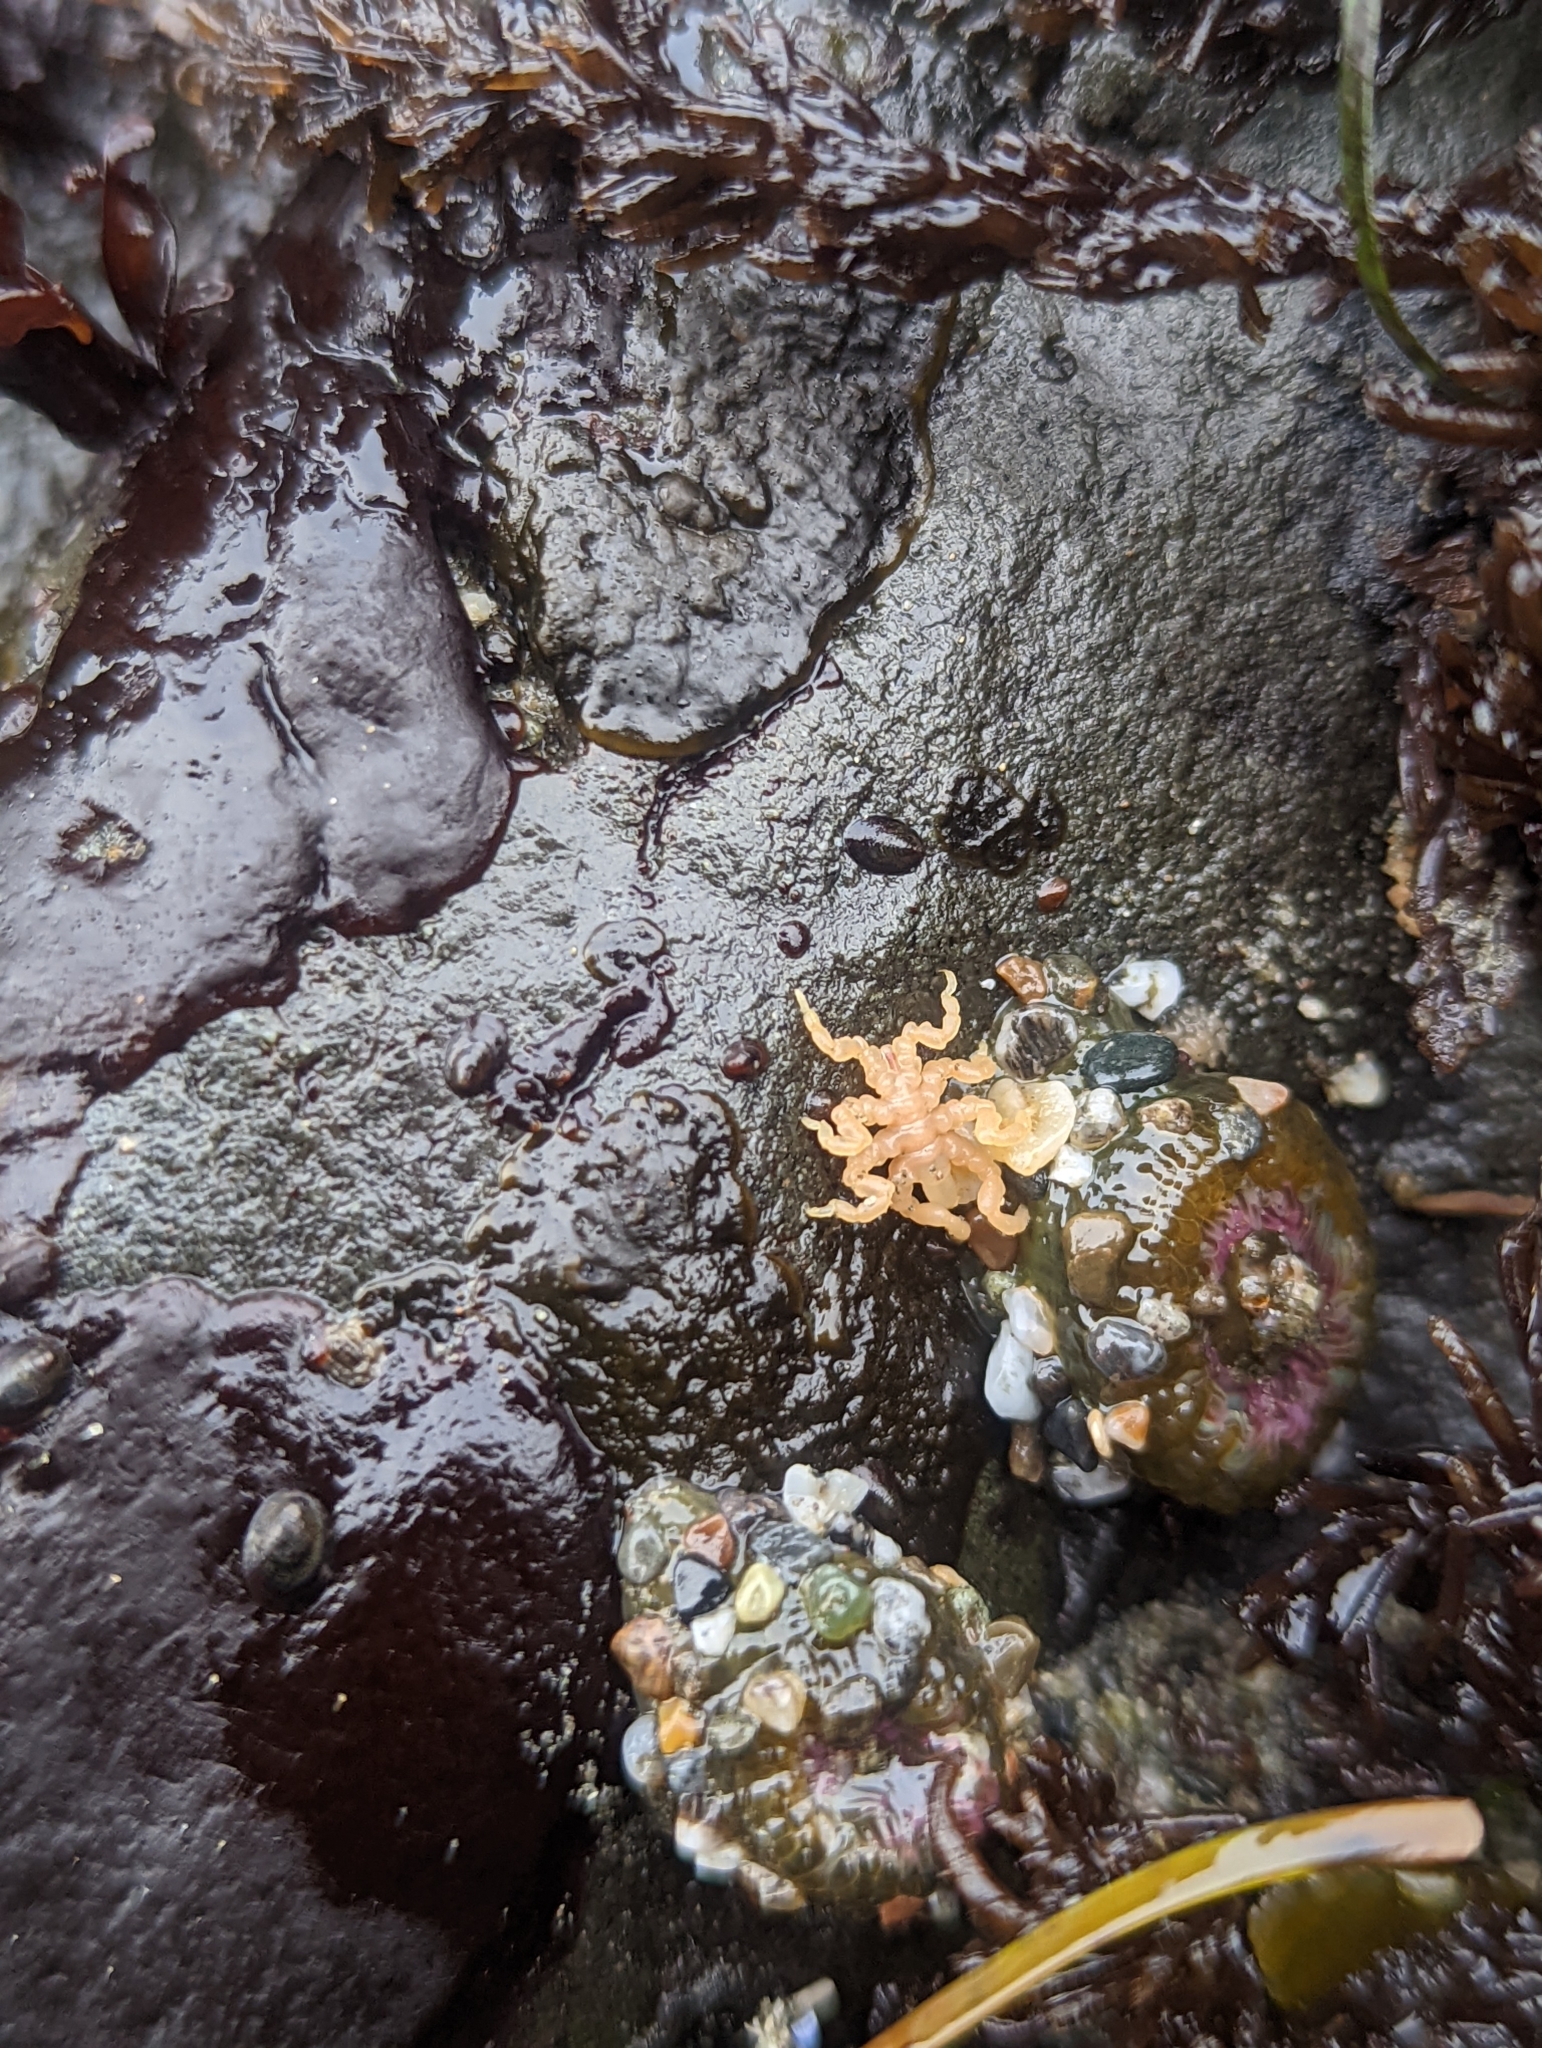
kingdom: Animalia
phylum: Arthropoda
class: Pycnogonida
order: Pantopoda
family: Pycnogonidae
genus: Pycnogonum
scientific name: Pycnogonum stearnsi
